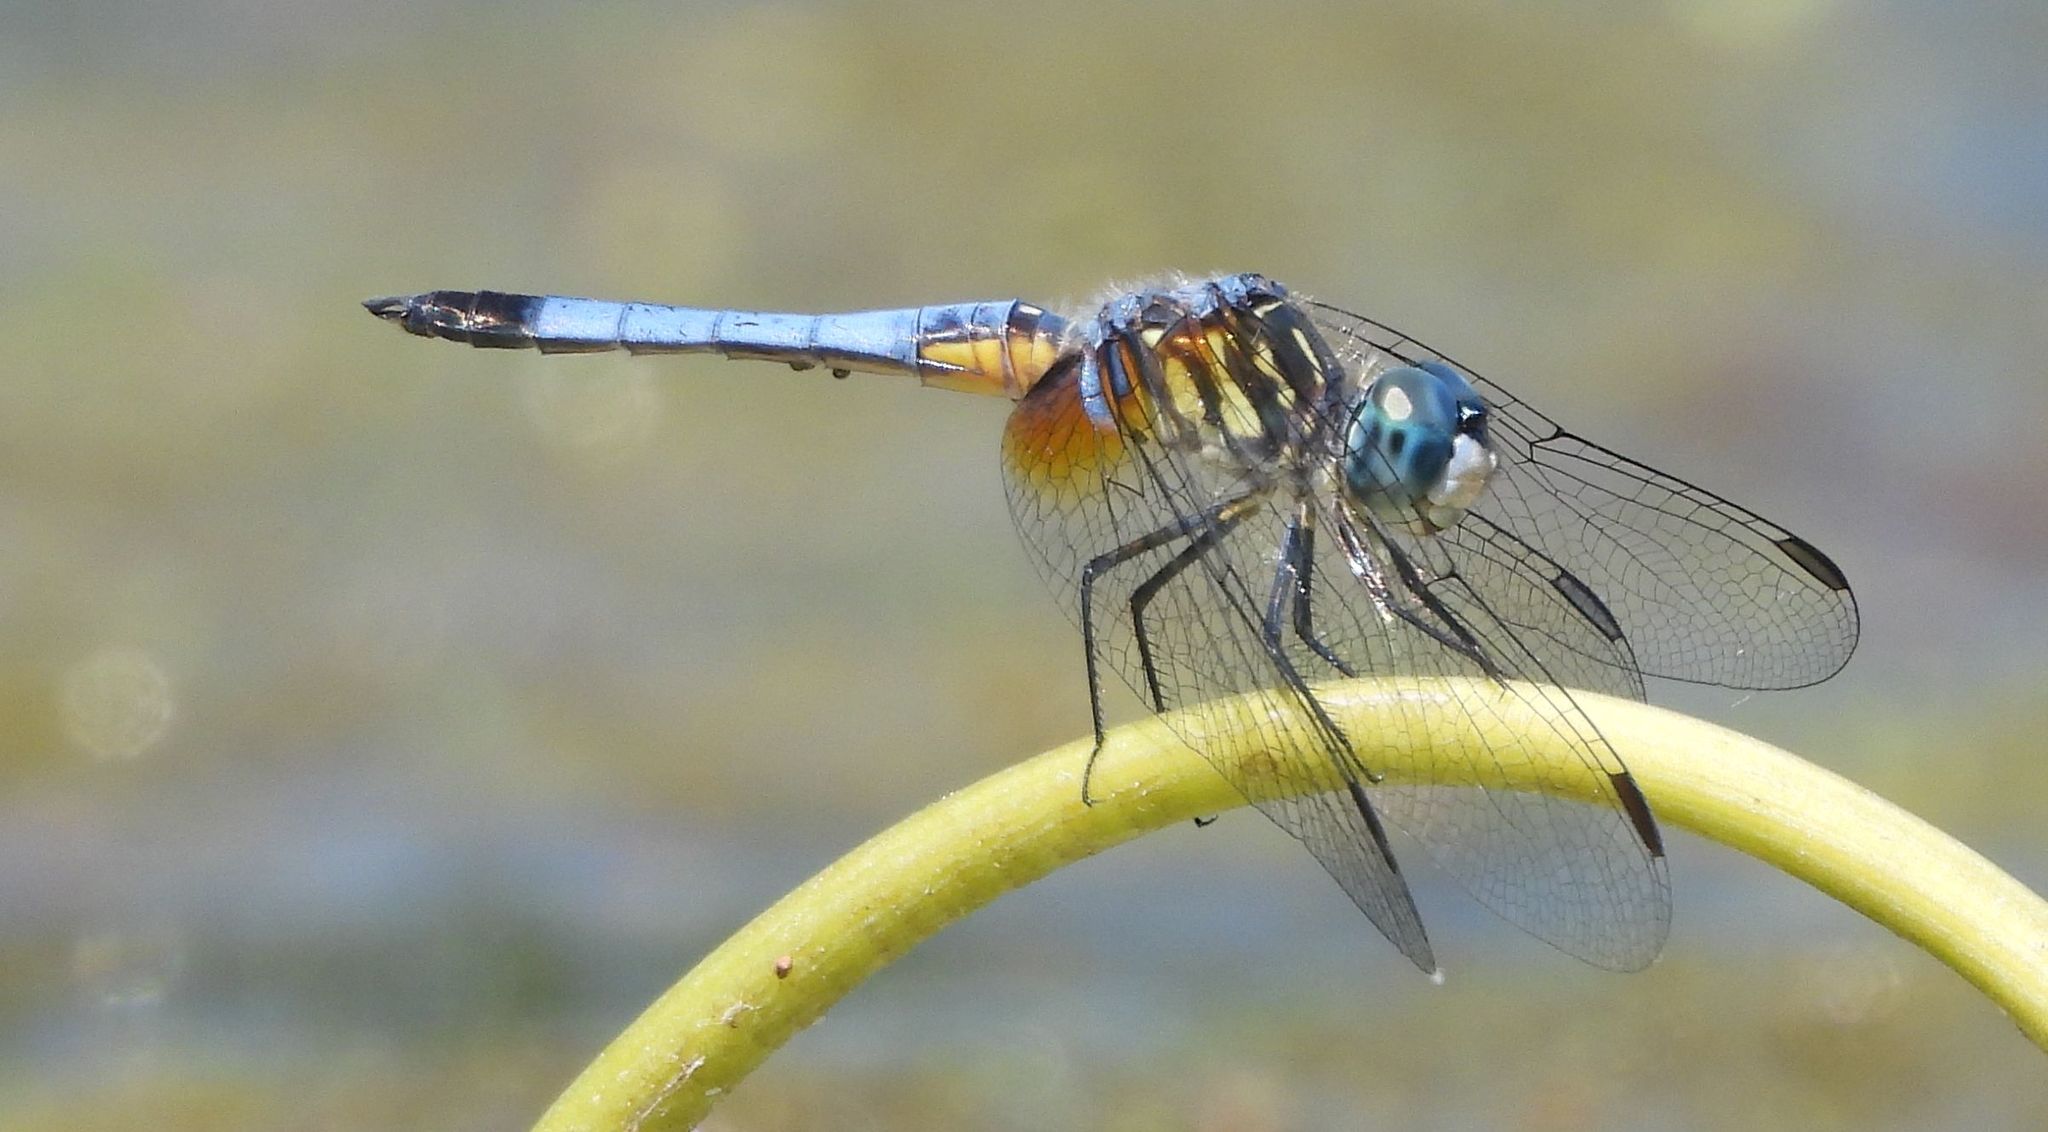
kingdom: Animalia
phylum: Arthropoda
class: Insecta
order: Odonata
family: Libellulidae
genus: Pachydiplax
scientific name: Pachydiplax longipennis
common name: Blue dasher
